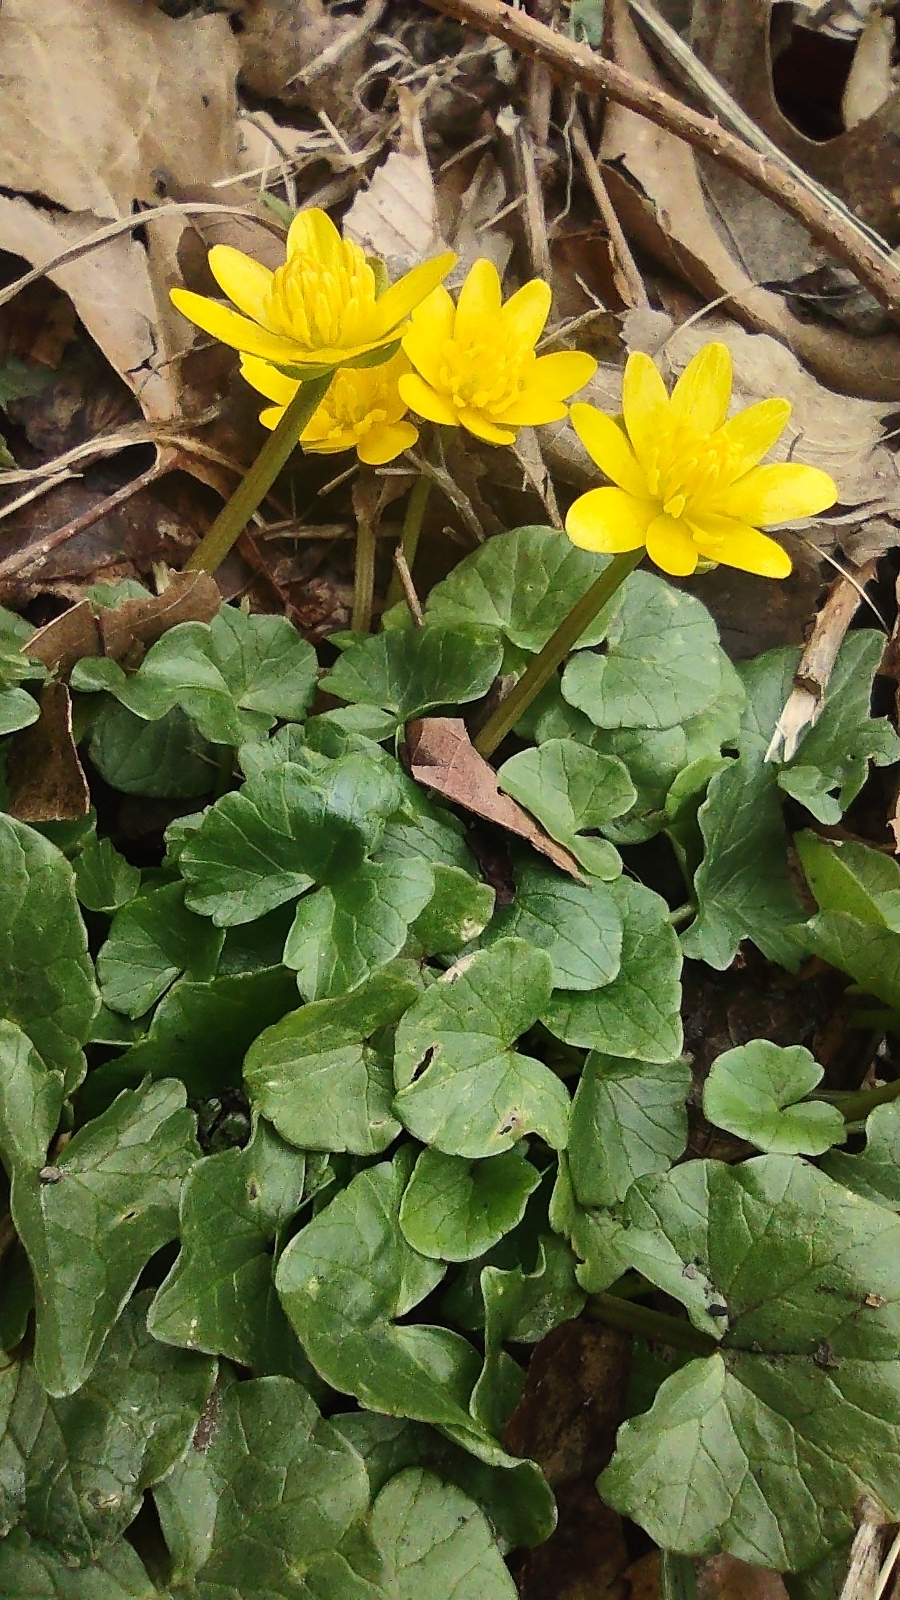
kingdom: Plantae
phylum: Tracheophyta
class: Magnoliopsida
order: Ranunculales
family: Ranunculaceae
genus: Ficaria
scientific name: Ficaria verna
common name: Lesser celandine
